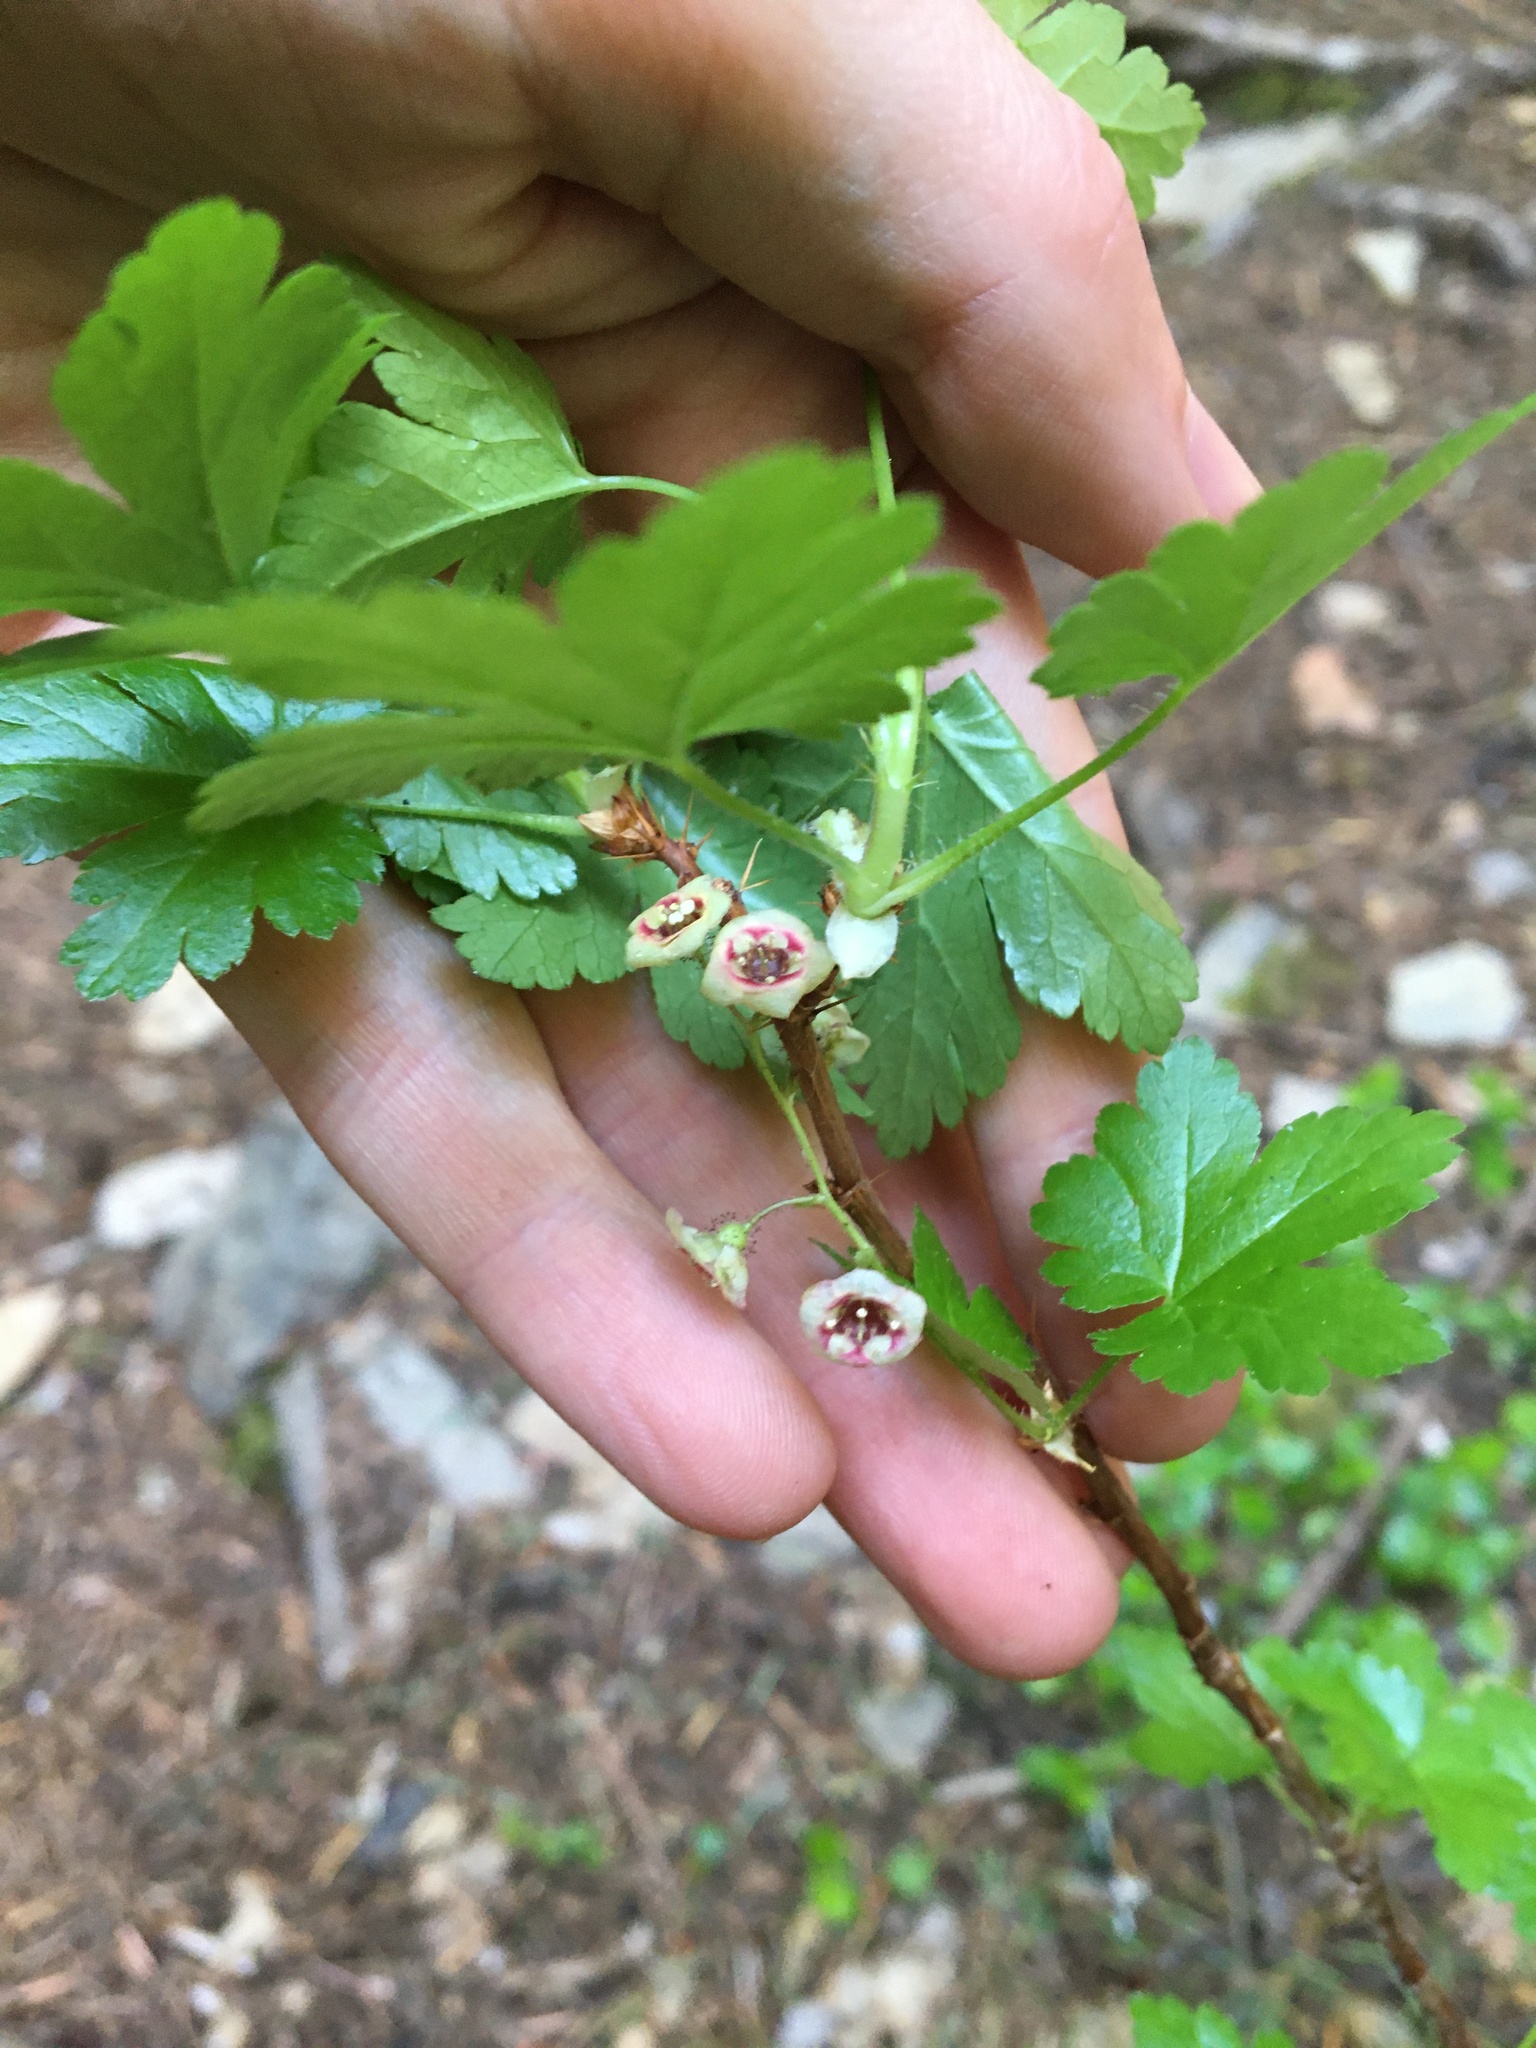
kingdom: Plantae
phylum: Tracheophyta
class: Magnoliopsida
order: Saxifragales
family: Grossulariaceae
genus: Ribes
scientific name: Ribes lacustre
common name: Black gooseberry
